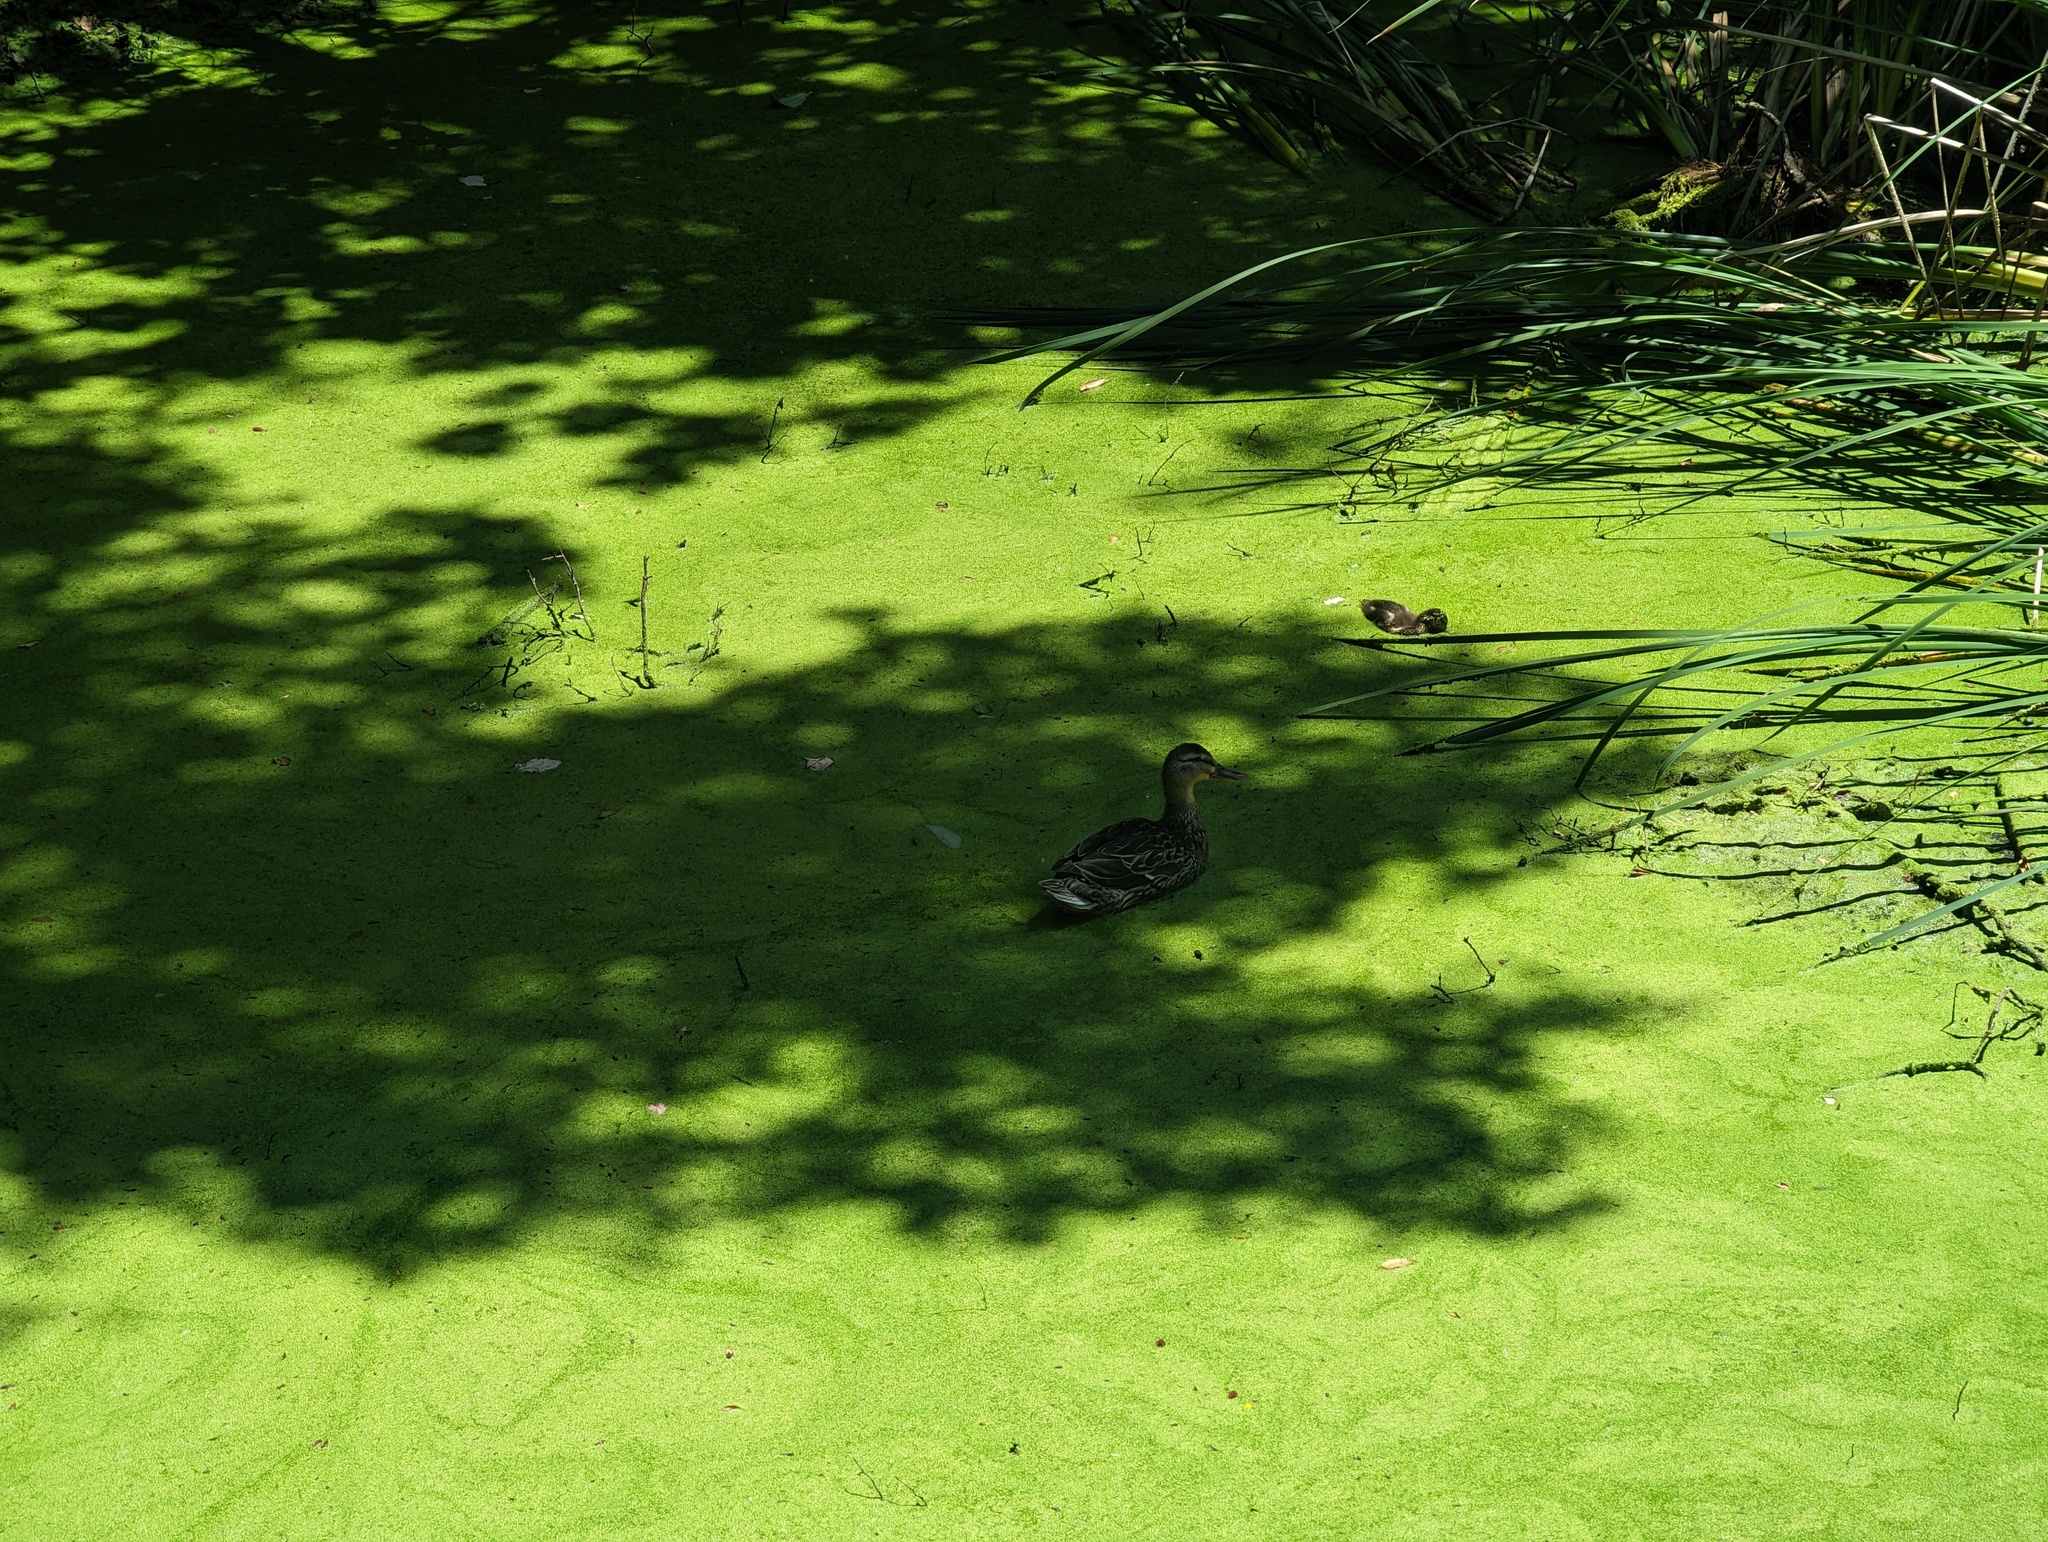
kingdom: Animalia
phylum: Chordata
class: Aves
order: Anseriformes
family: Anatidae
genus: Anas
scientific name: Anas platyrhynchos
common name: Mallard
